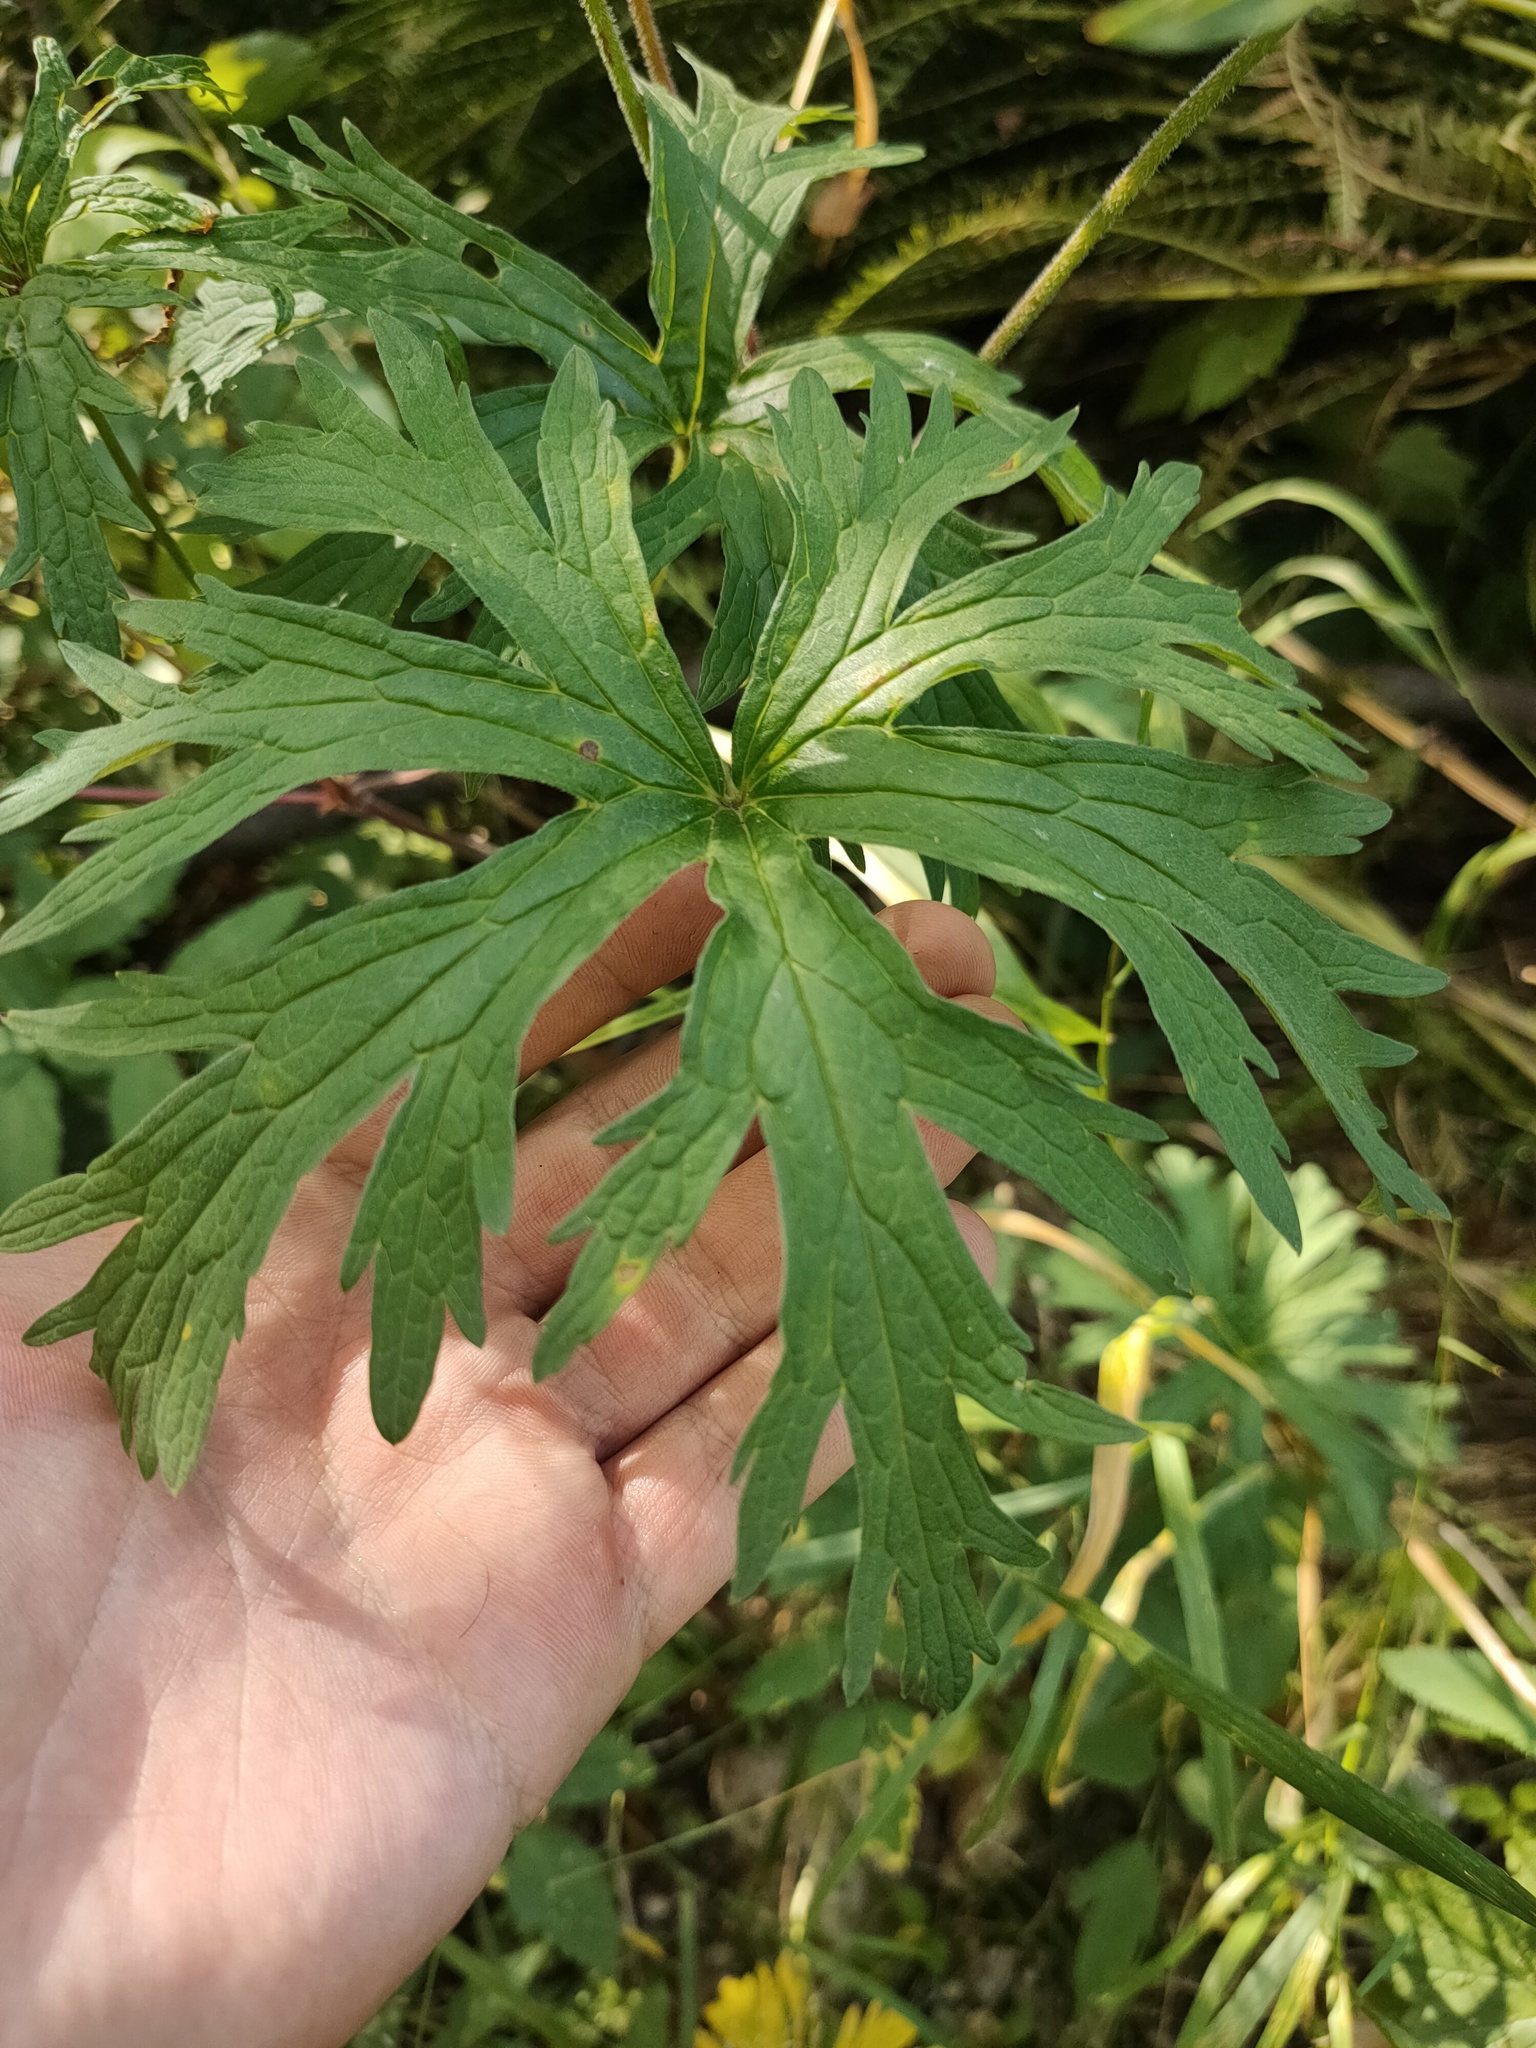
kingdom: Plantae
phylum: Tracheophyta
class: Magnoliopsida
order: Geraniales
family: Geraniaceae
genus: Geranium
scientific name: Geranium pratense
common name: Meadow crane's-bill
